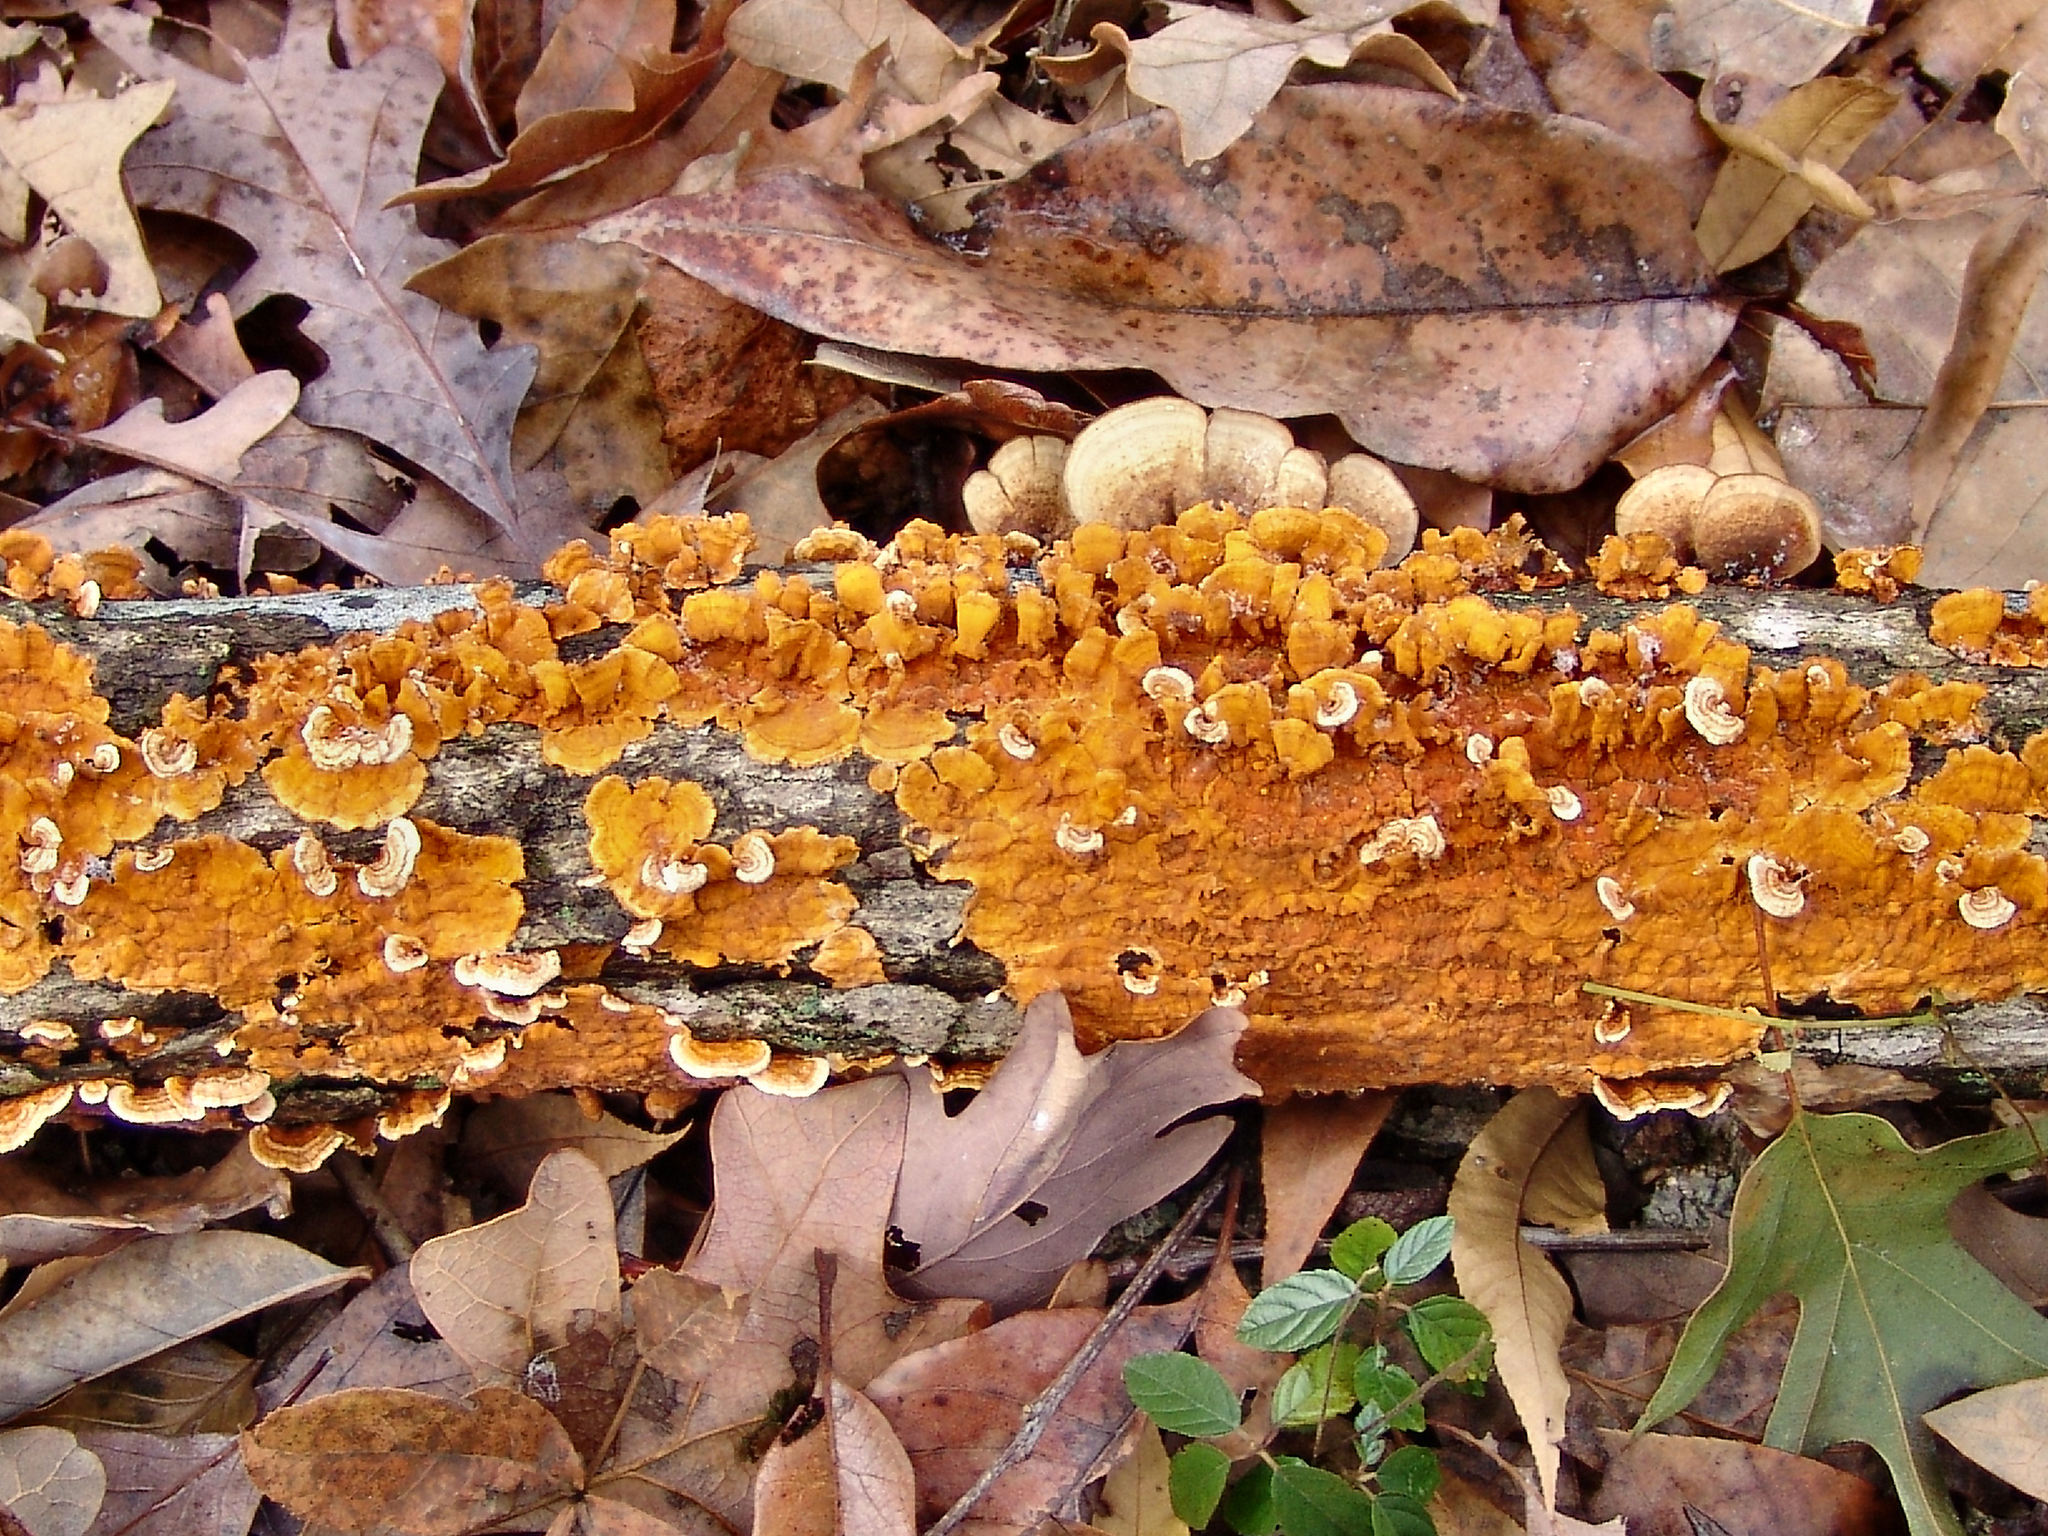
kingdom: Fungi
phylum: Basidiomycota
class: Agaricomycetes
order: Russulales
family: Stereaceae
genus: Stereum
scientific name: Stereum complicatum
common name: Crowded parchment
